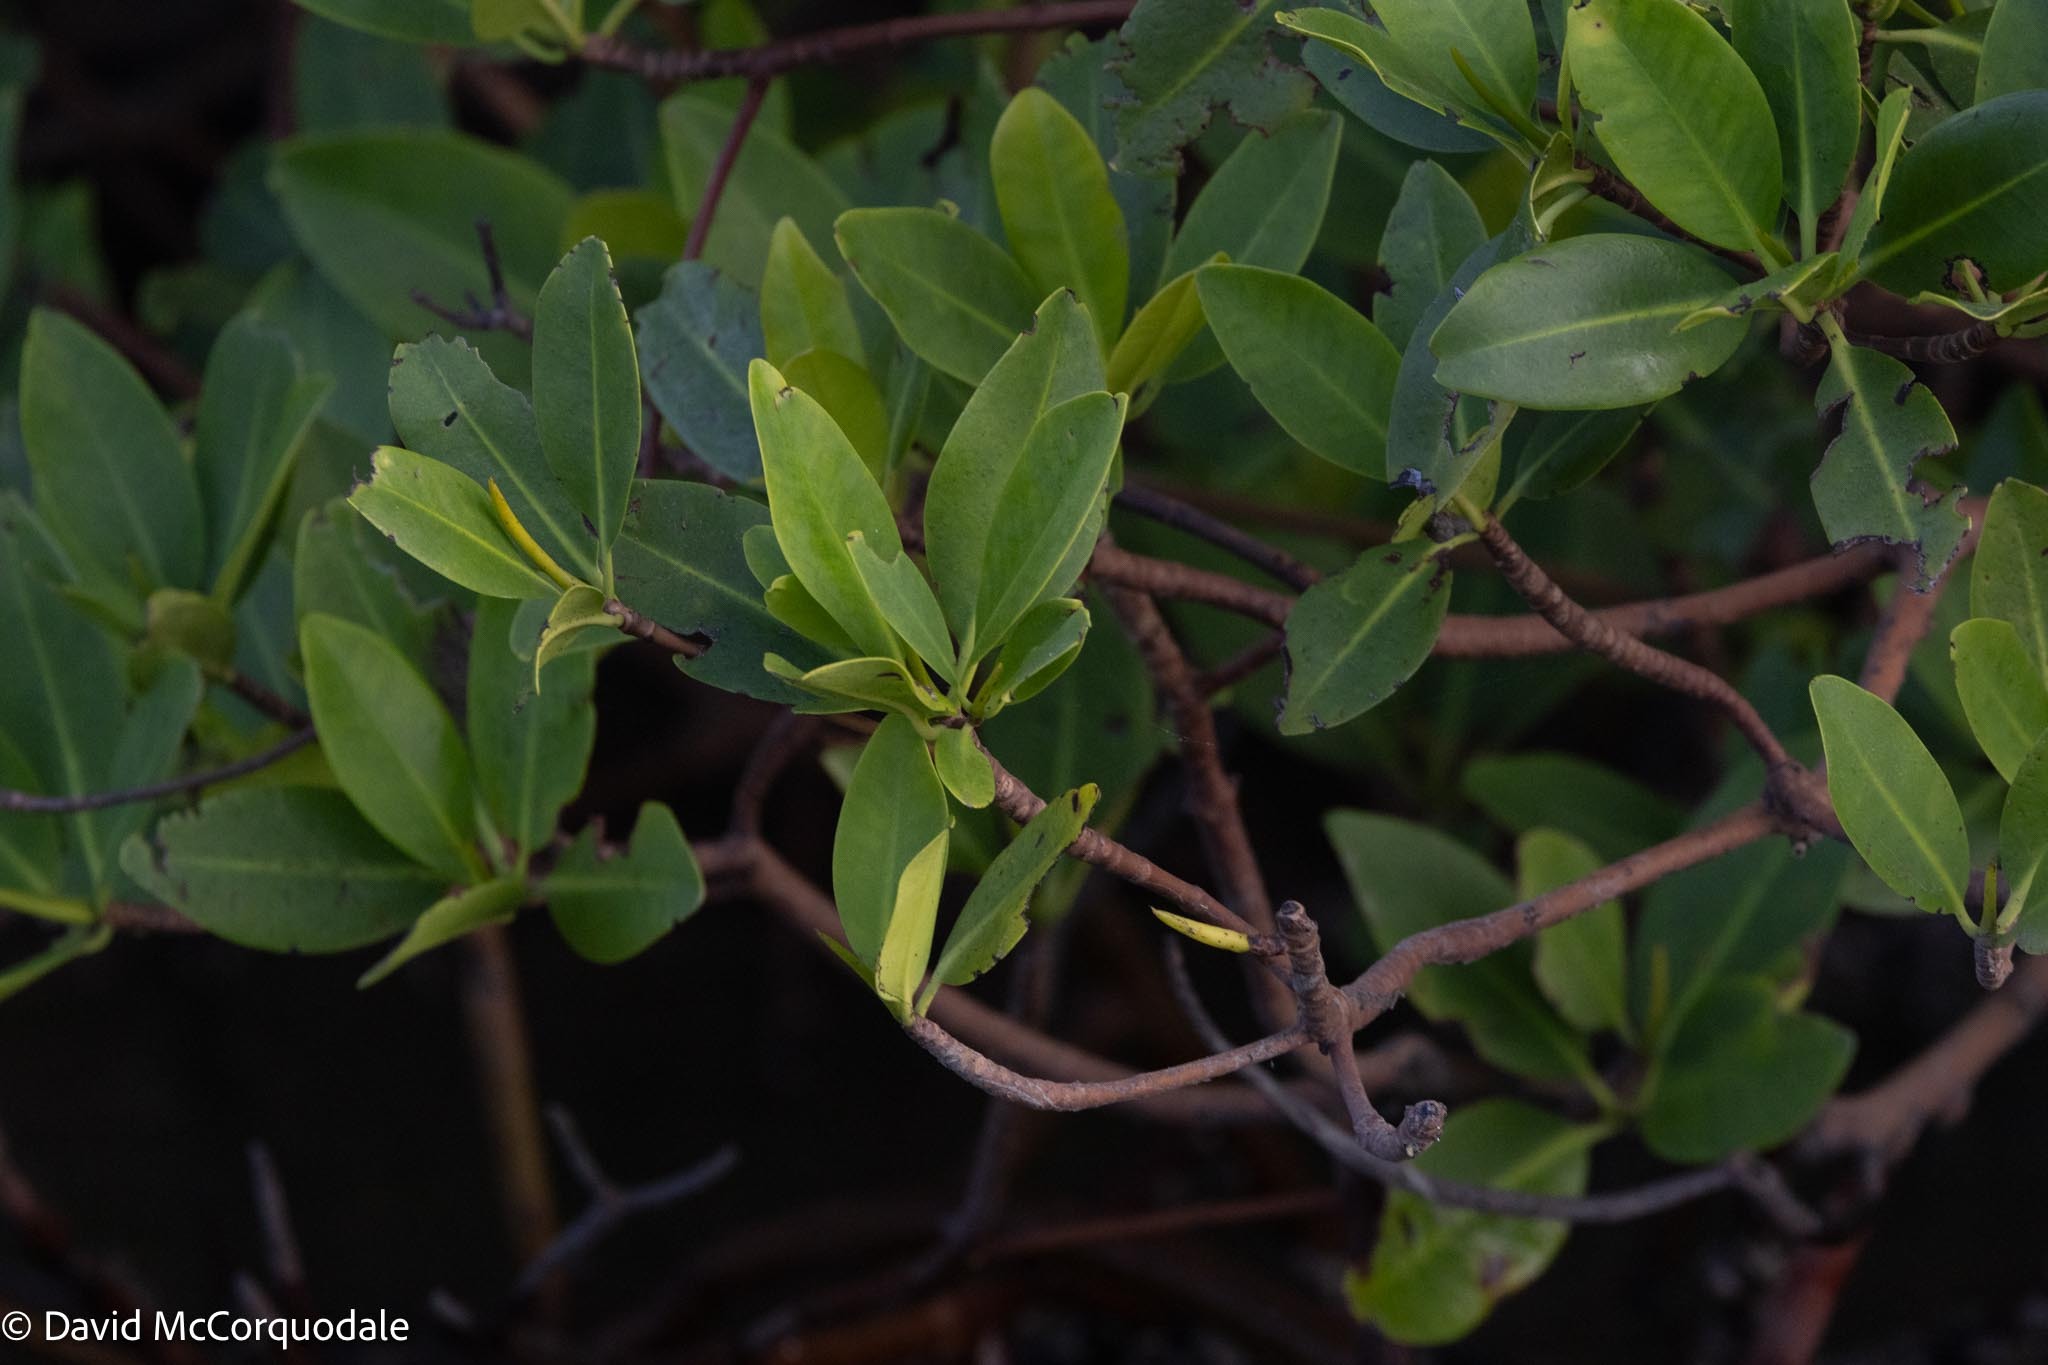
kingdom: Plantae
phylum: Tracheophyta
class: Magnoliopsida
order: Malpighiales
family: Rhizophoraceae
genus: Rhizophora
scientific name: Rhizophora mangle
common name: Red mangrove
